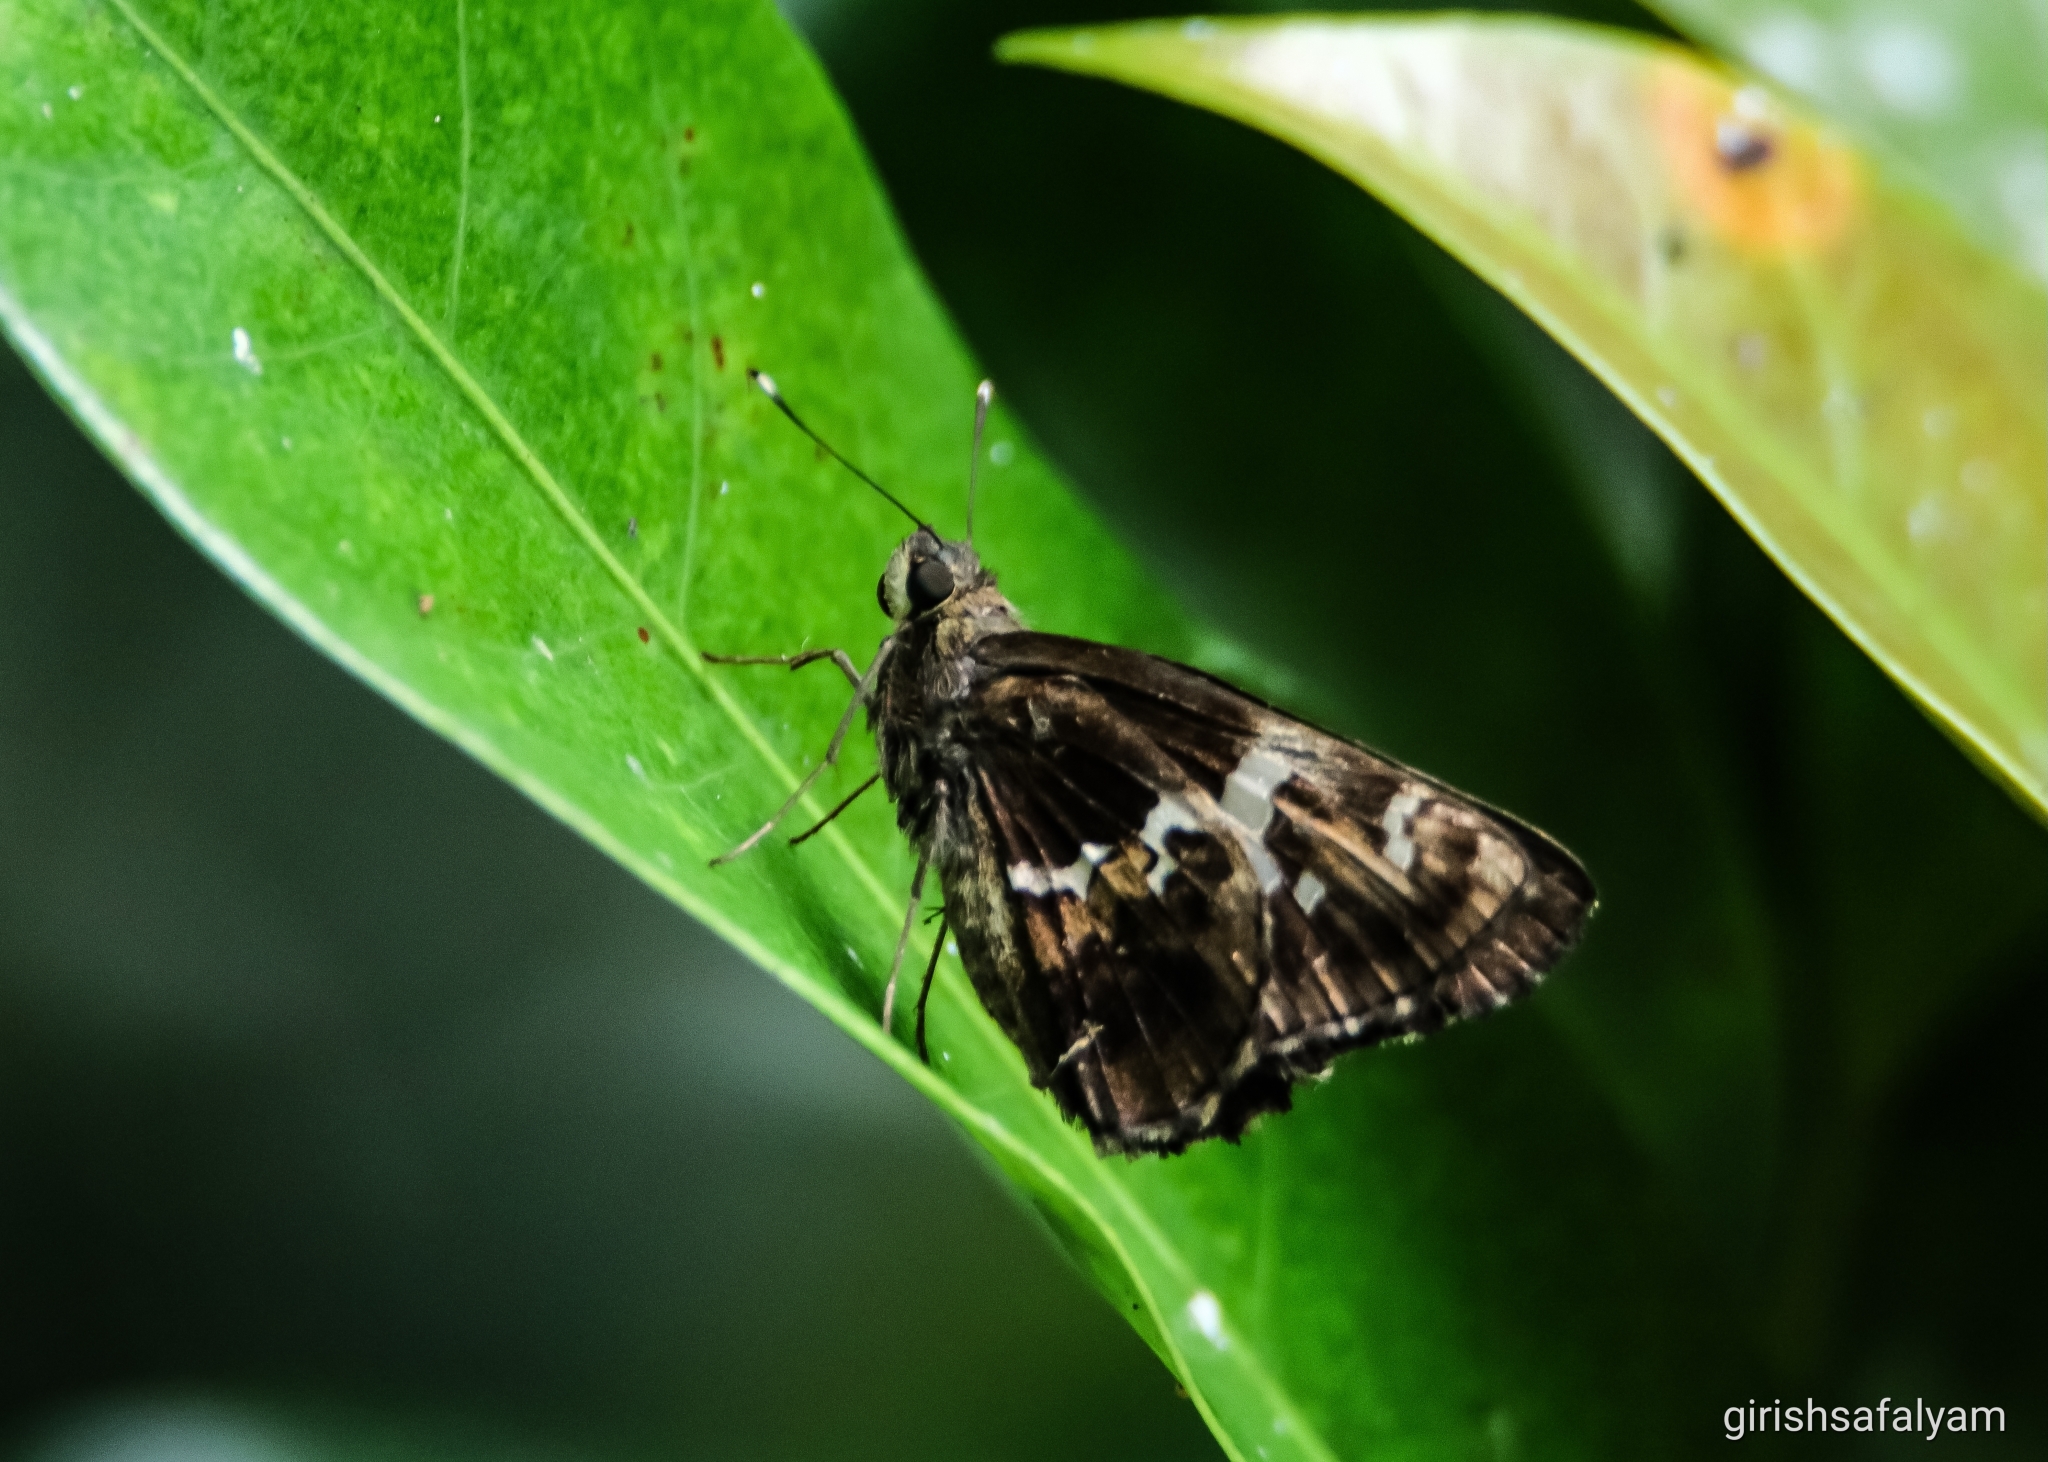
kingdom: Animalia
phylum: Arthropoda
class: Insecta
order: Lepidoptera
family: Hesperiidae
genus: Hyarotis
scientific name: Hyarotis adrastus
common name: Tree flitter
